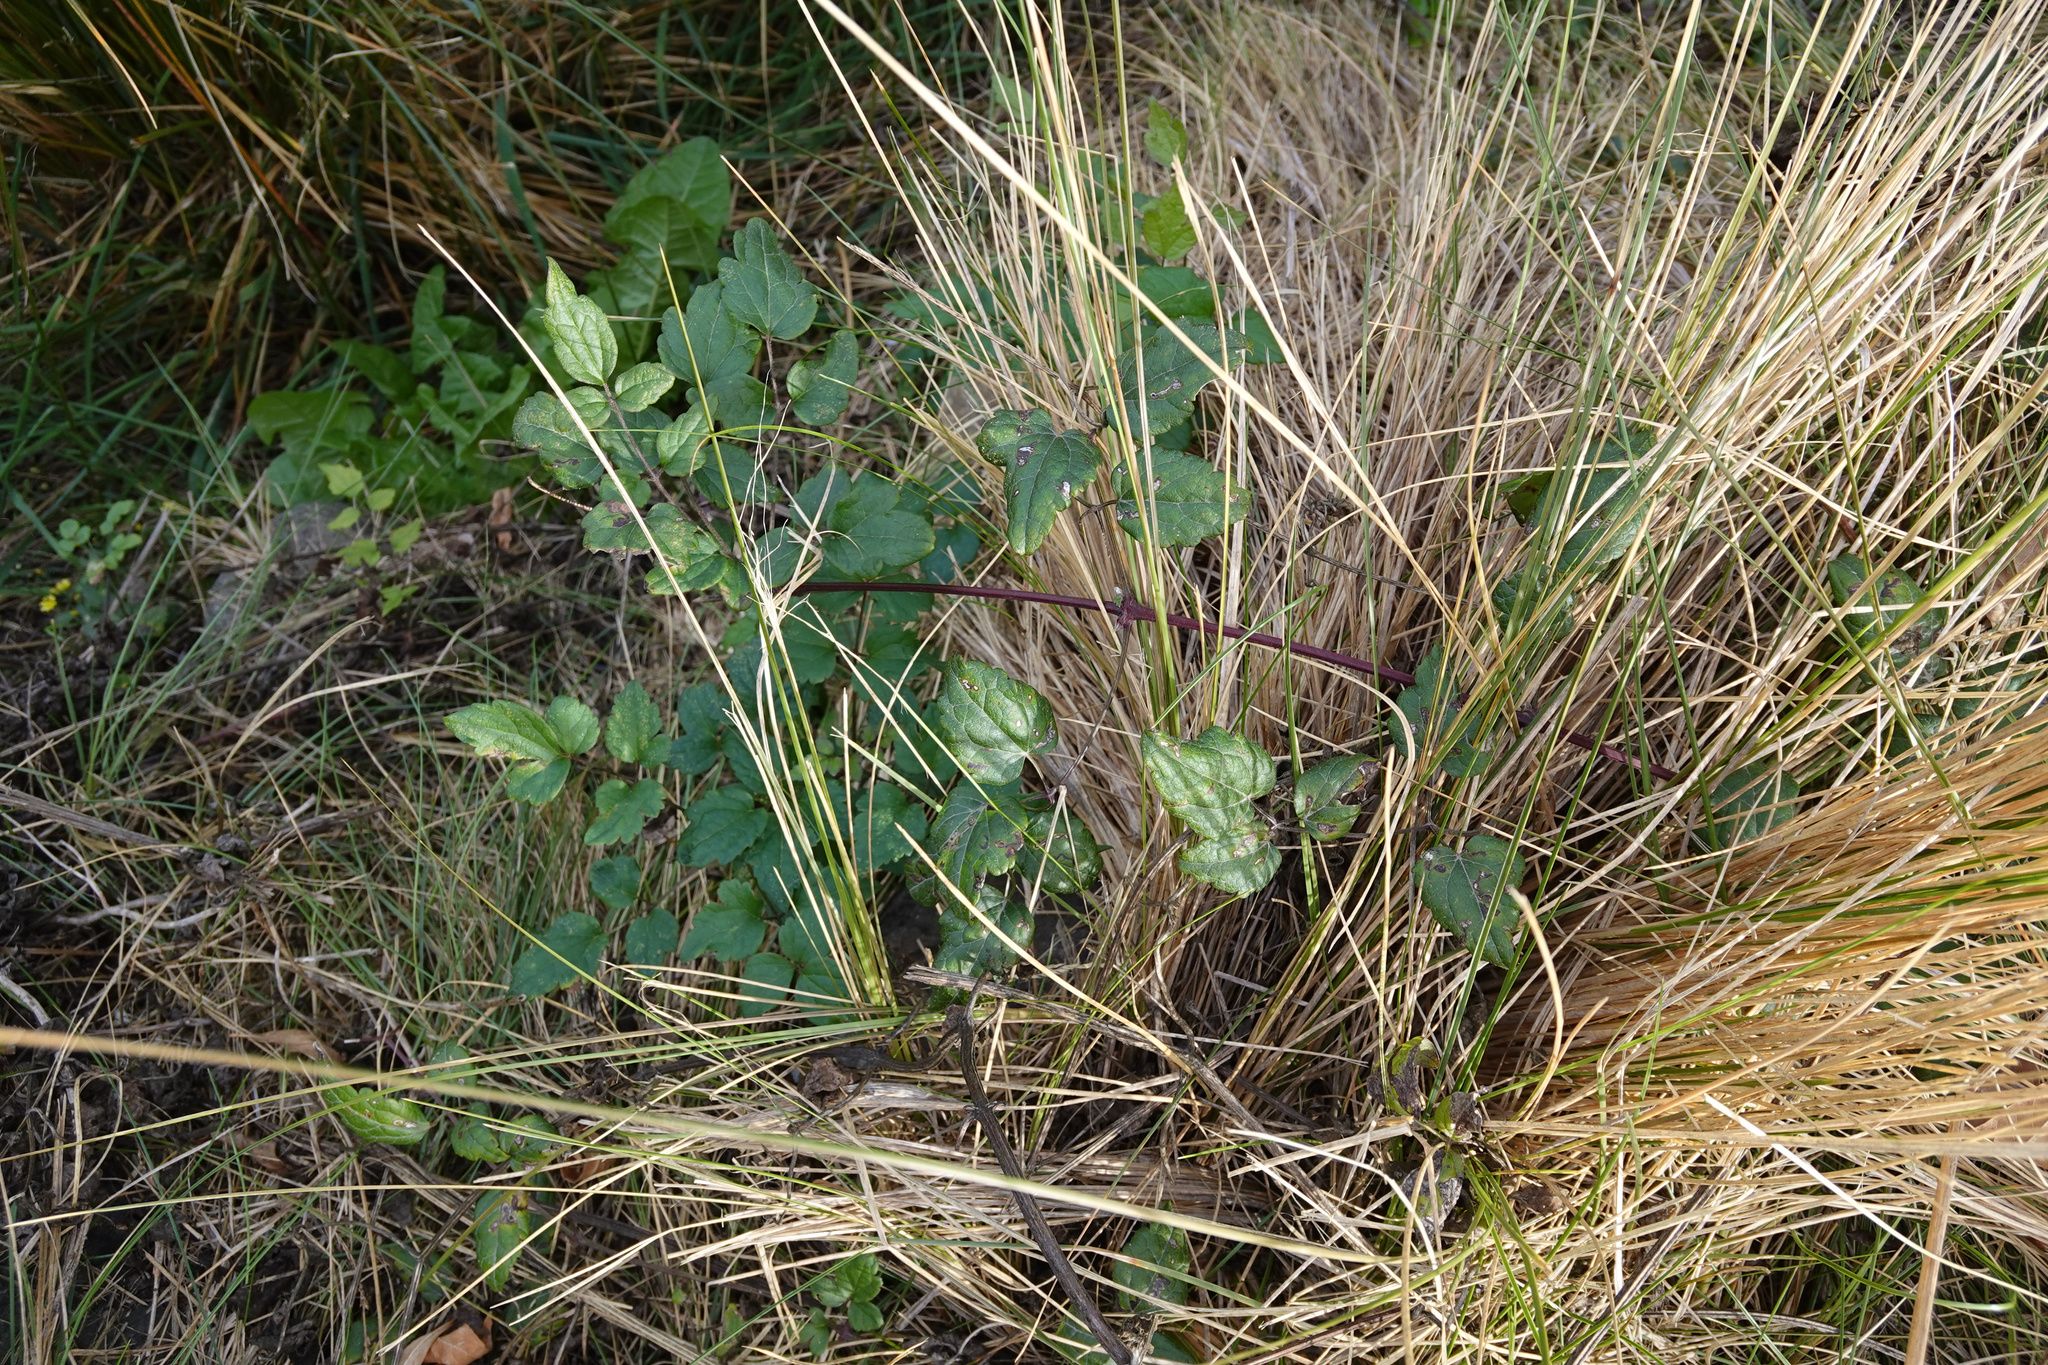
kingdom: Plantae
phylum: Tracheophyta
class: Magnoliopsida
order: Ranunculales
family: Ranunculaceae
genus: Clematis
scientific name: Clematis vitalba
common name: Evergreen clematis
